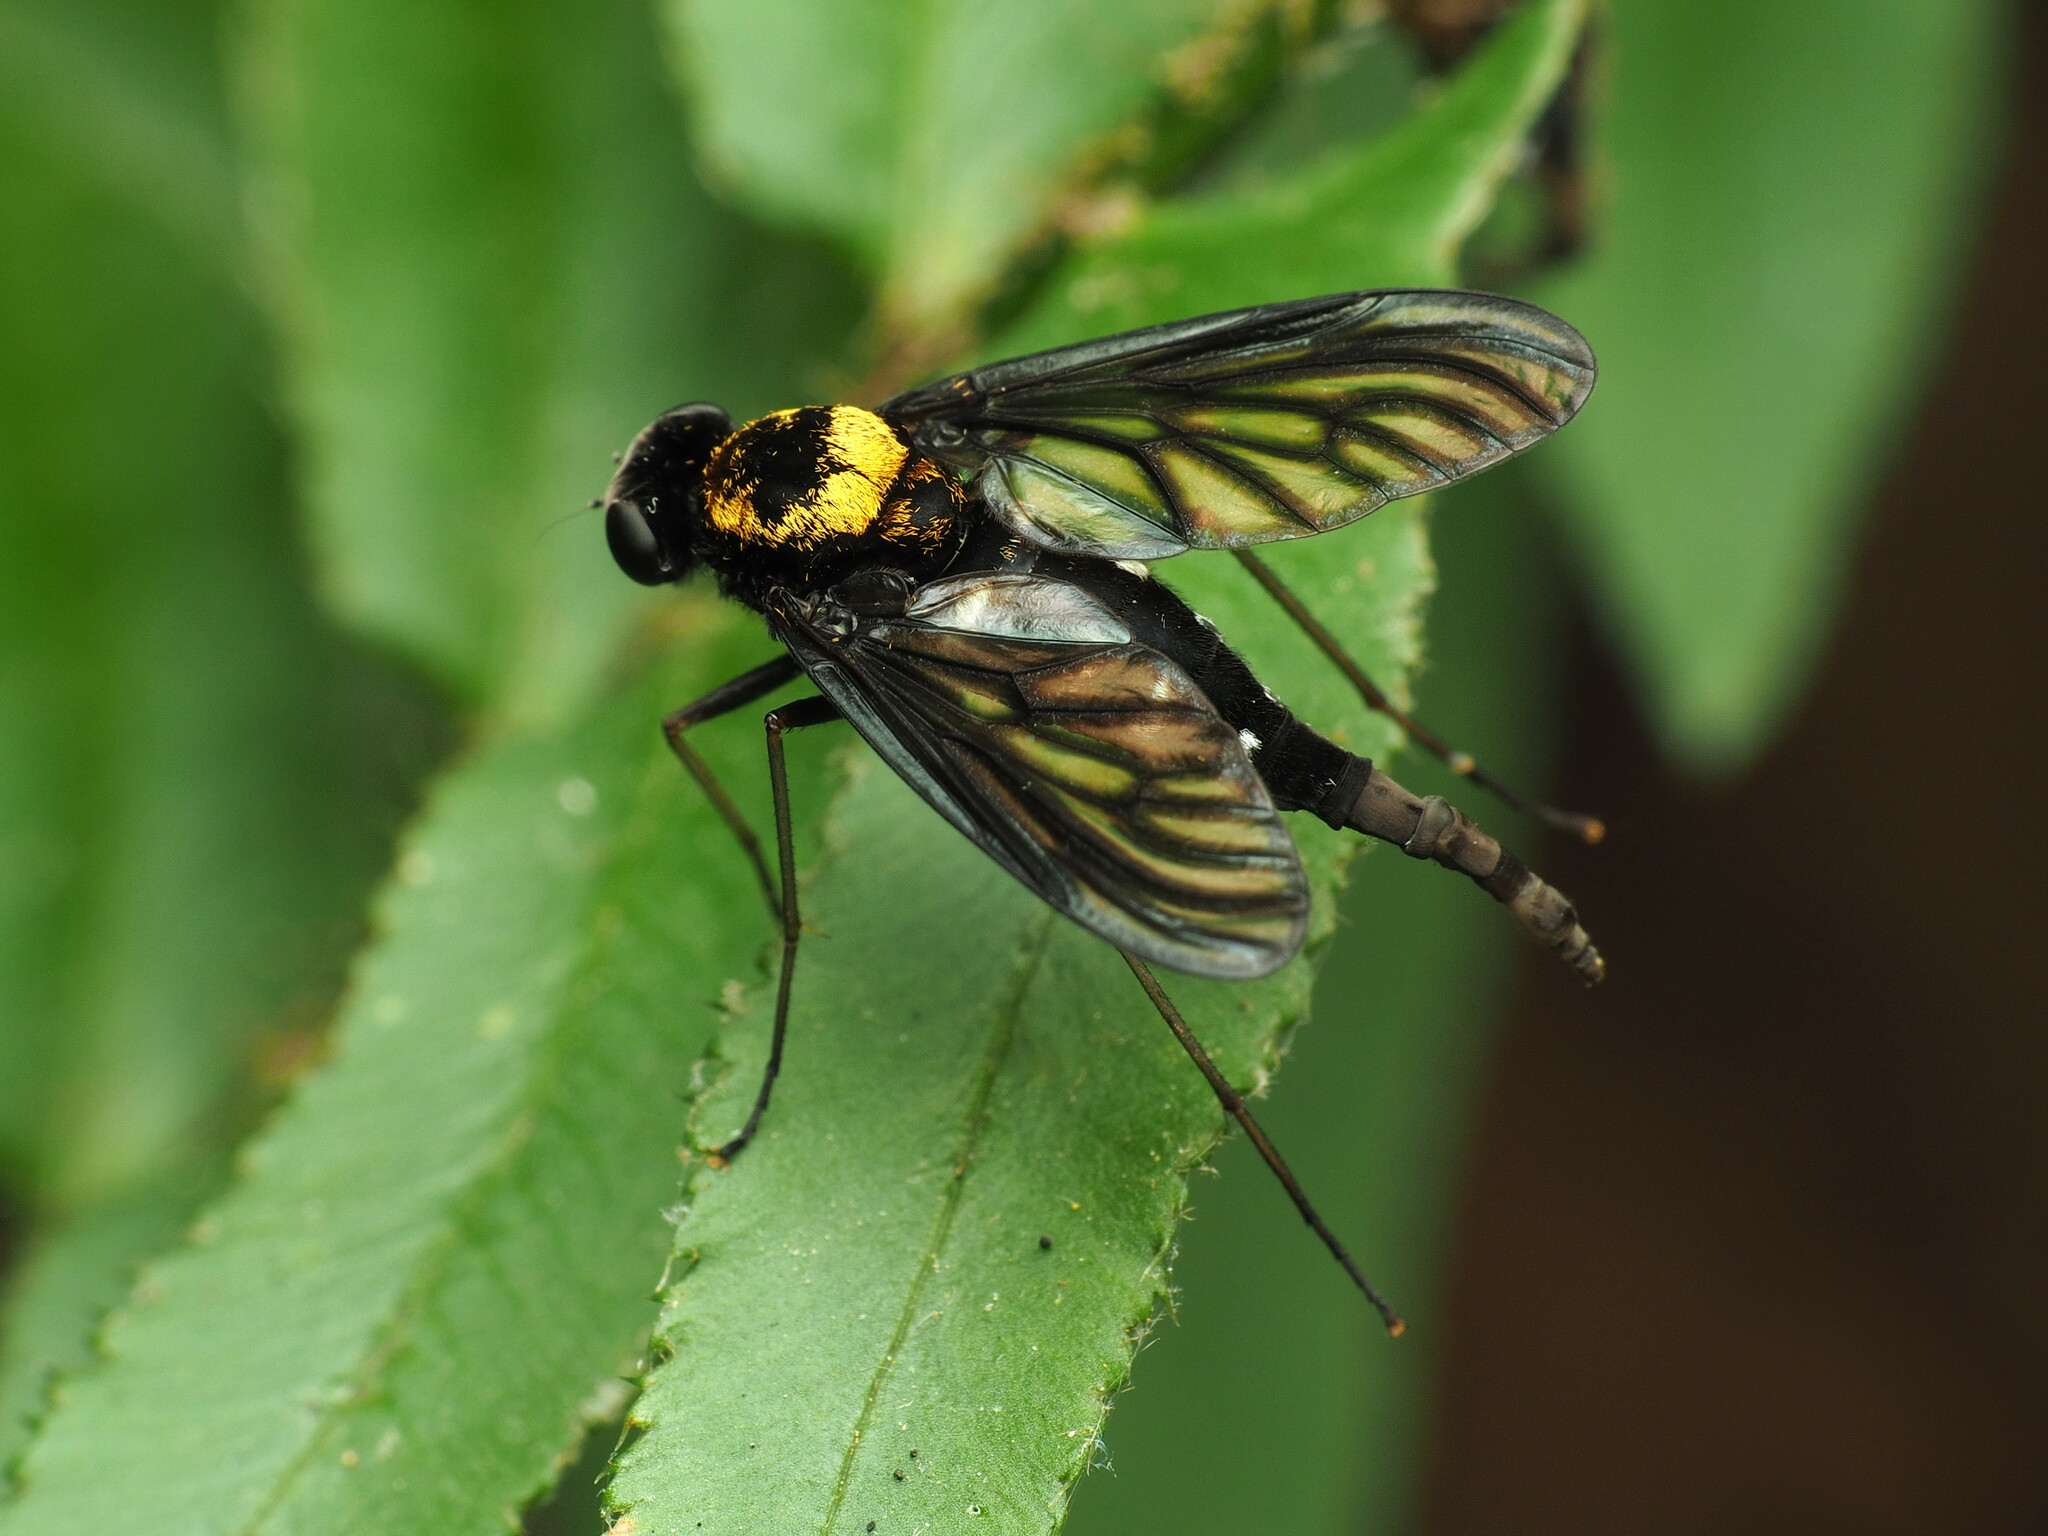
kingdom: Animalia
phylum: Arthropoda
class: Insecta
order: Diptera
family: Rhagionidae
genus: Chrysopilus
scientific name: Chrysopilus thoracicus
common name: Golden-backed snipe fly
